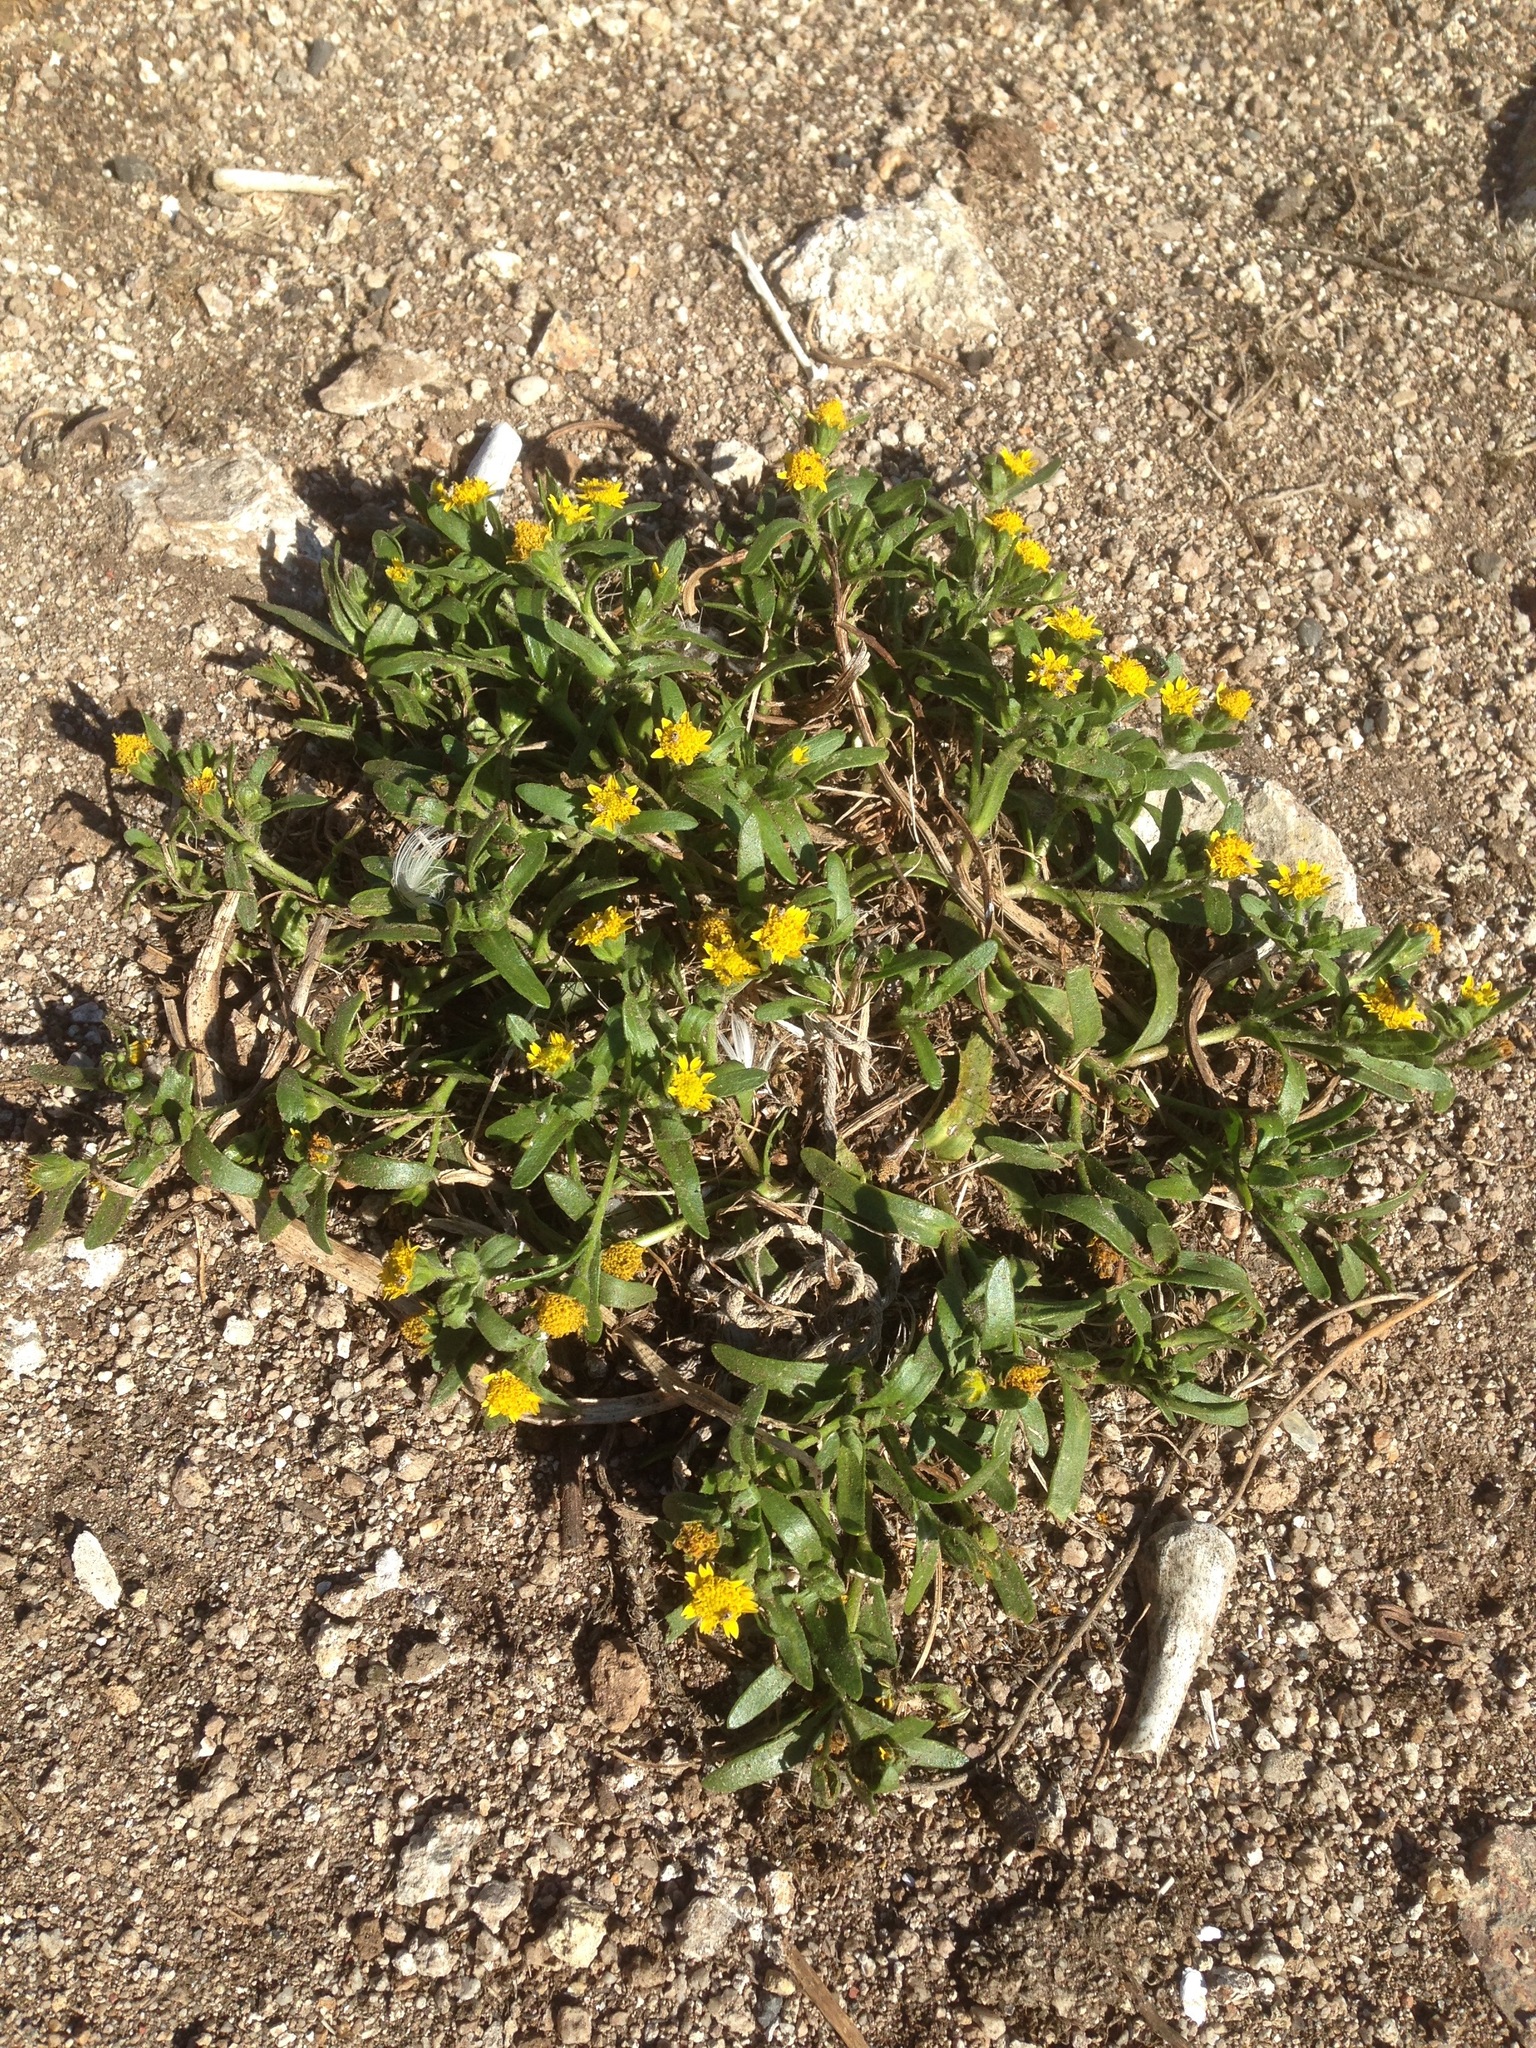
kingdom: Plantae
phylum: Tracheophyta
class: Magnoliopsida
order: Asterales
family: Asteraceae
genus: Lasthenia
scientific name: Lasthenia maritima
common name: Hairy goldfields
